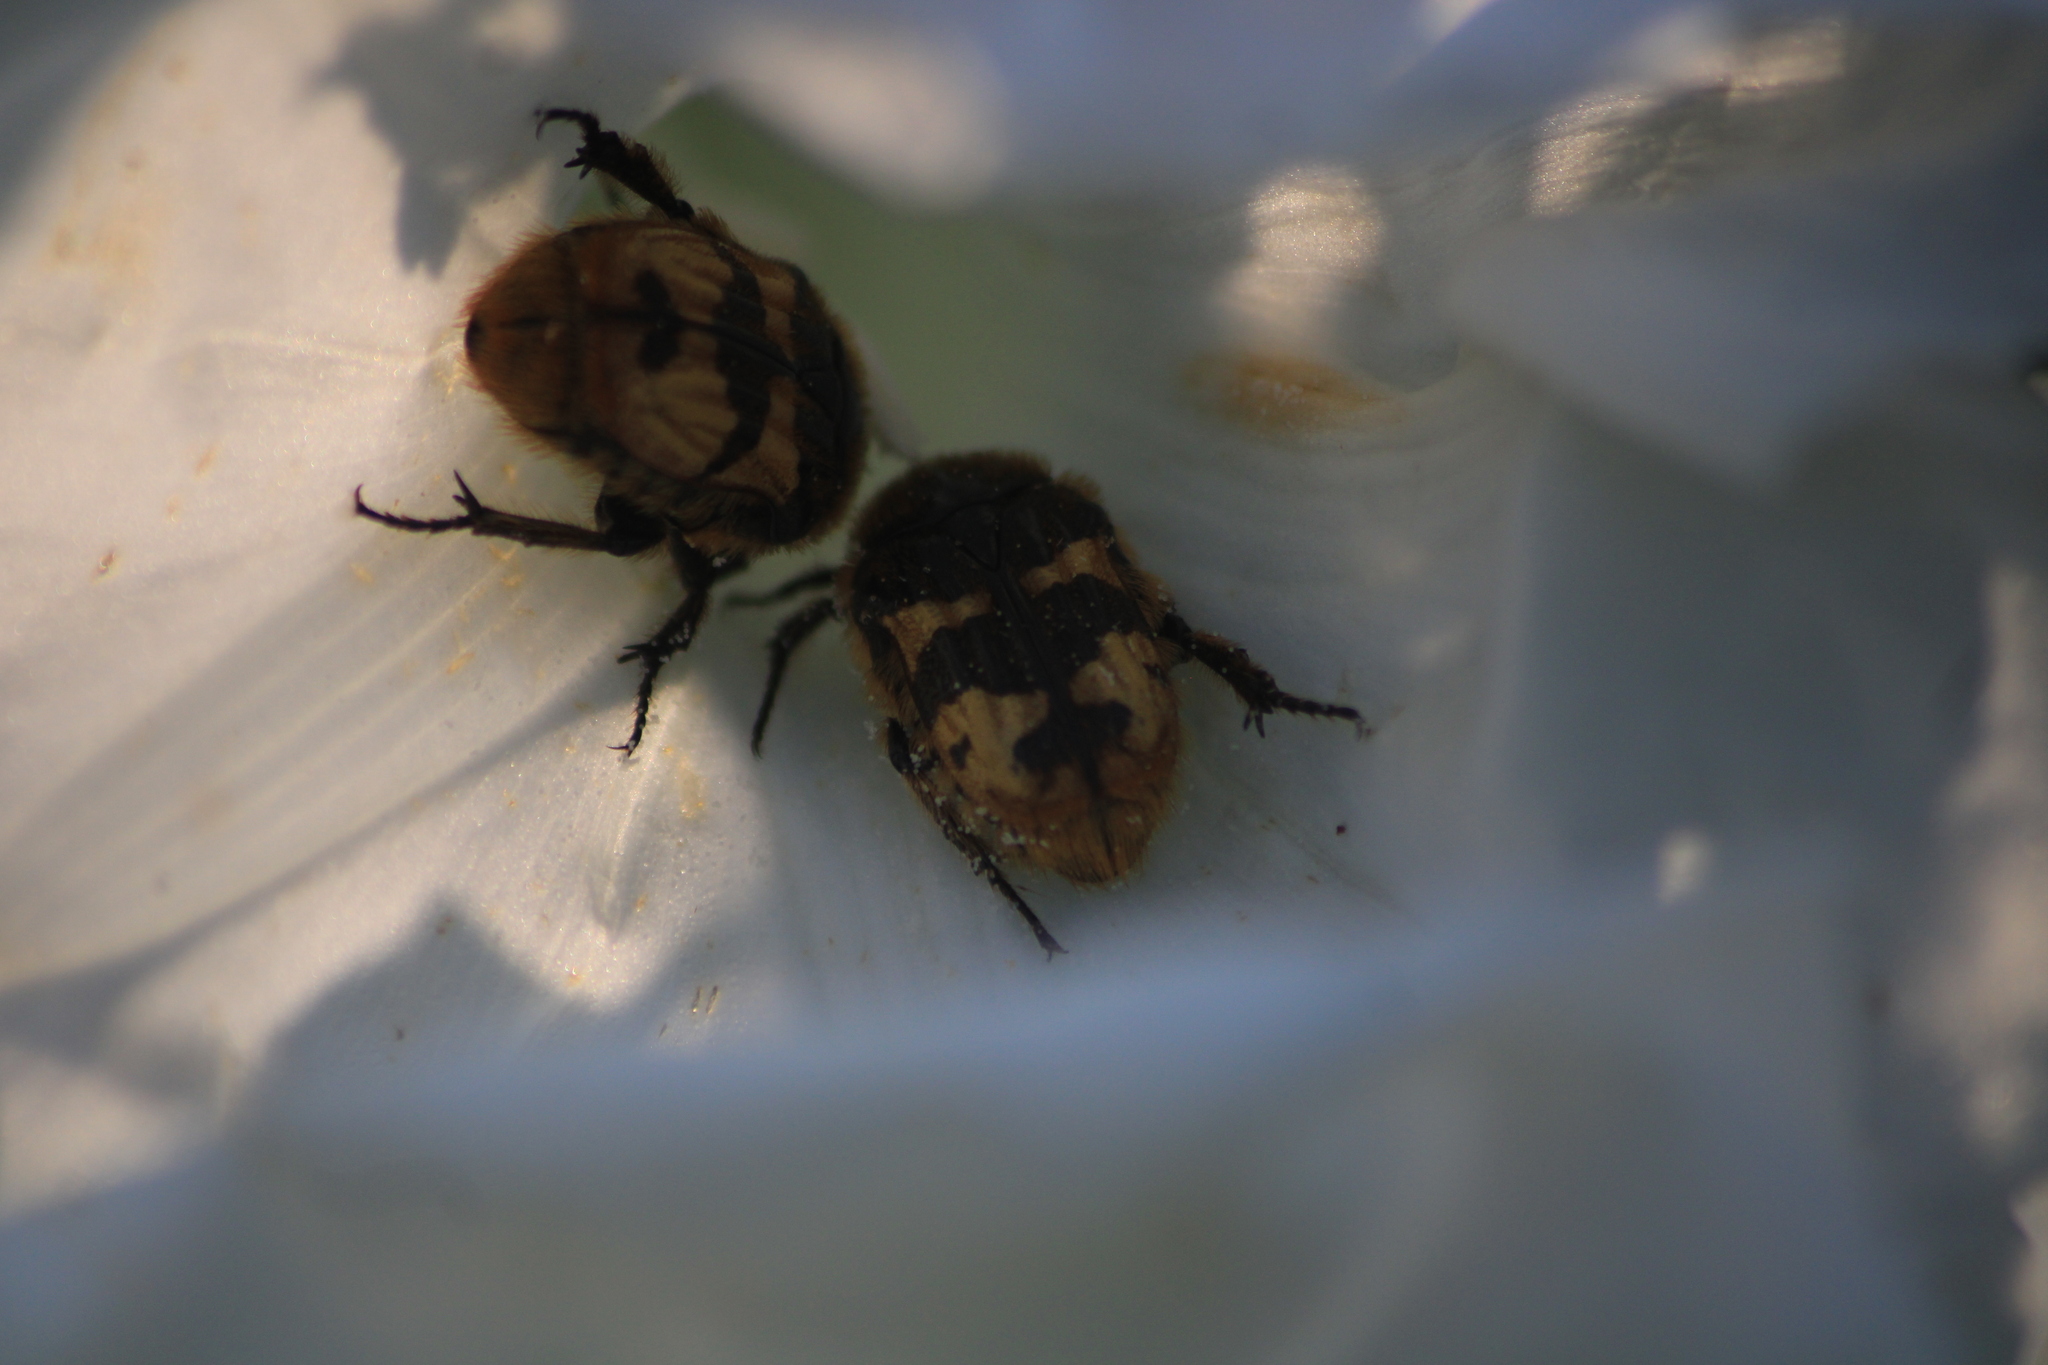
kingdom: Animalia
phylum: Arthropoda
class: Insecta
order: Coleoptera
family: Scarabaeidae
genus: Euphoria
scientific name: Euphoria basalis
